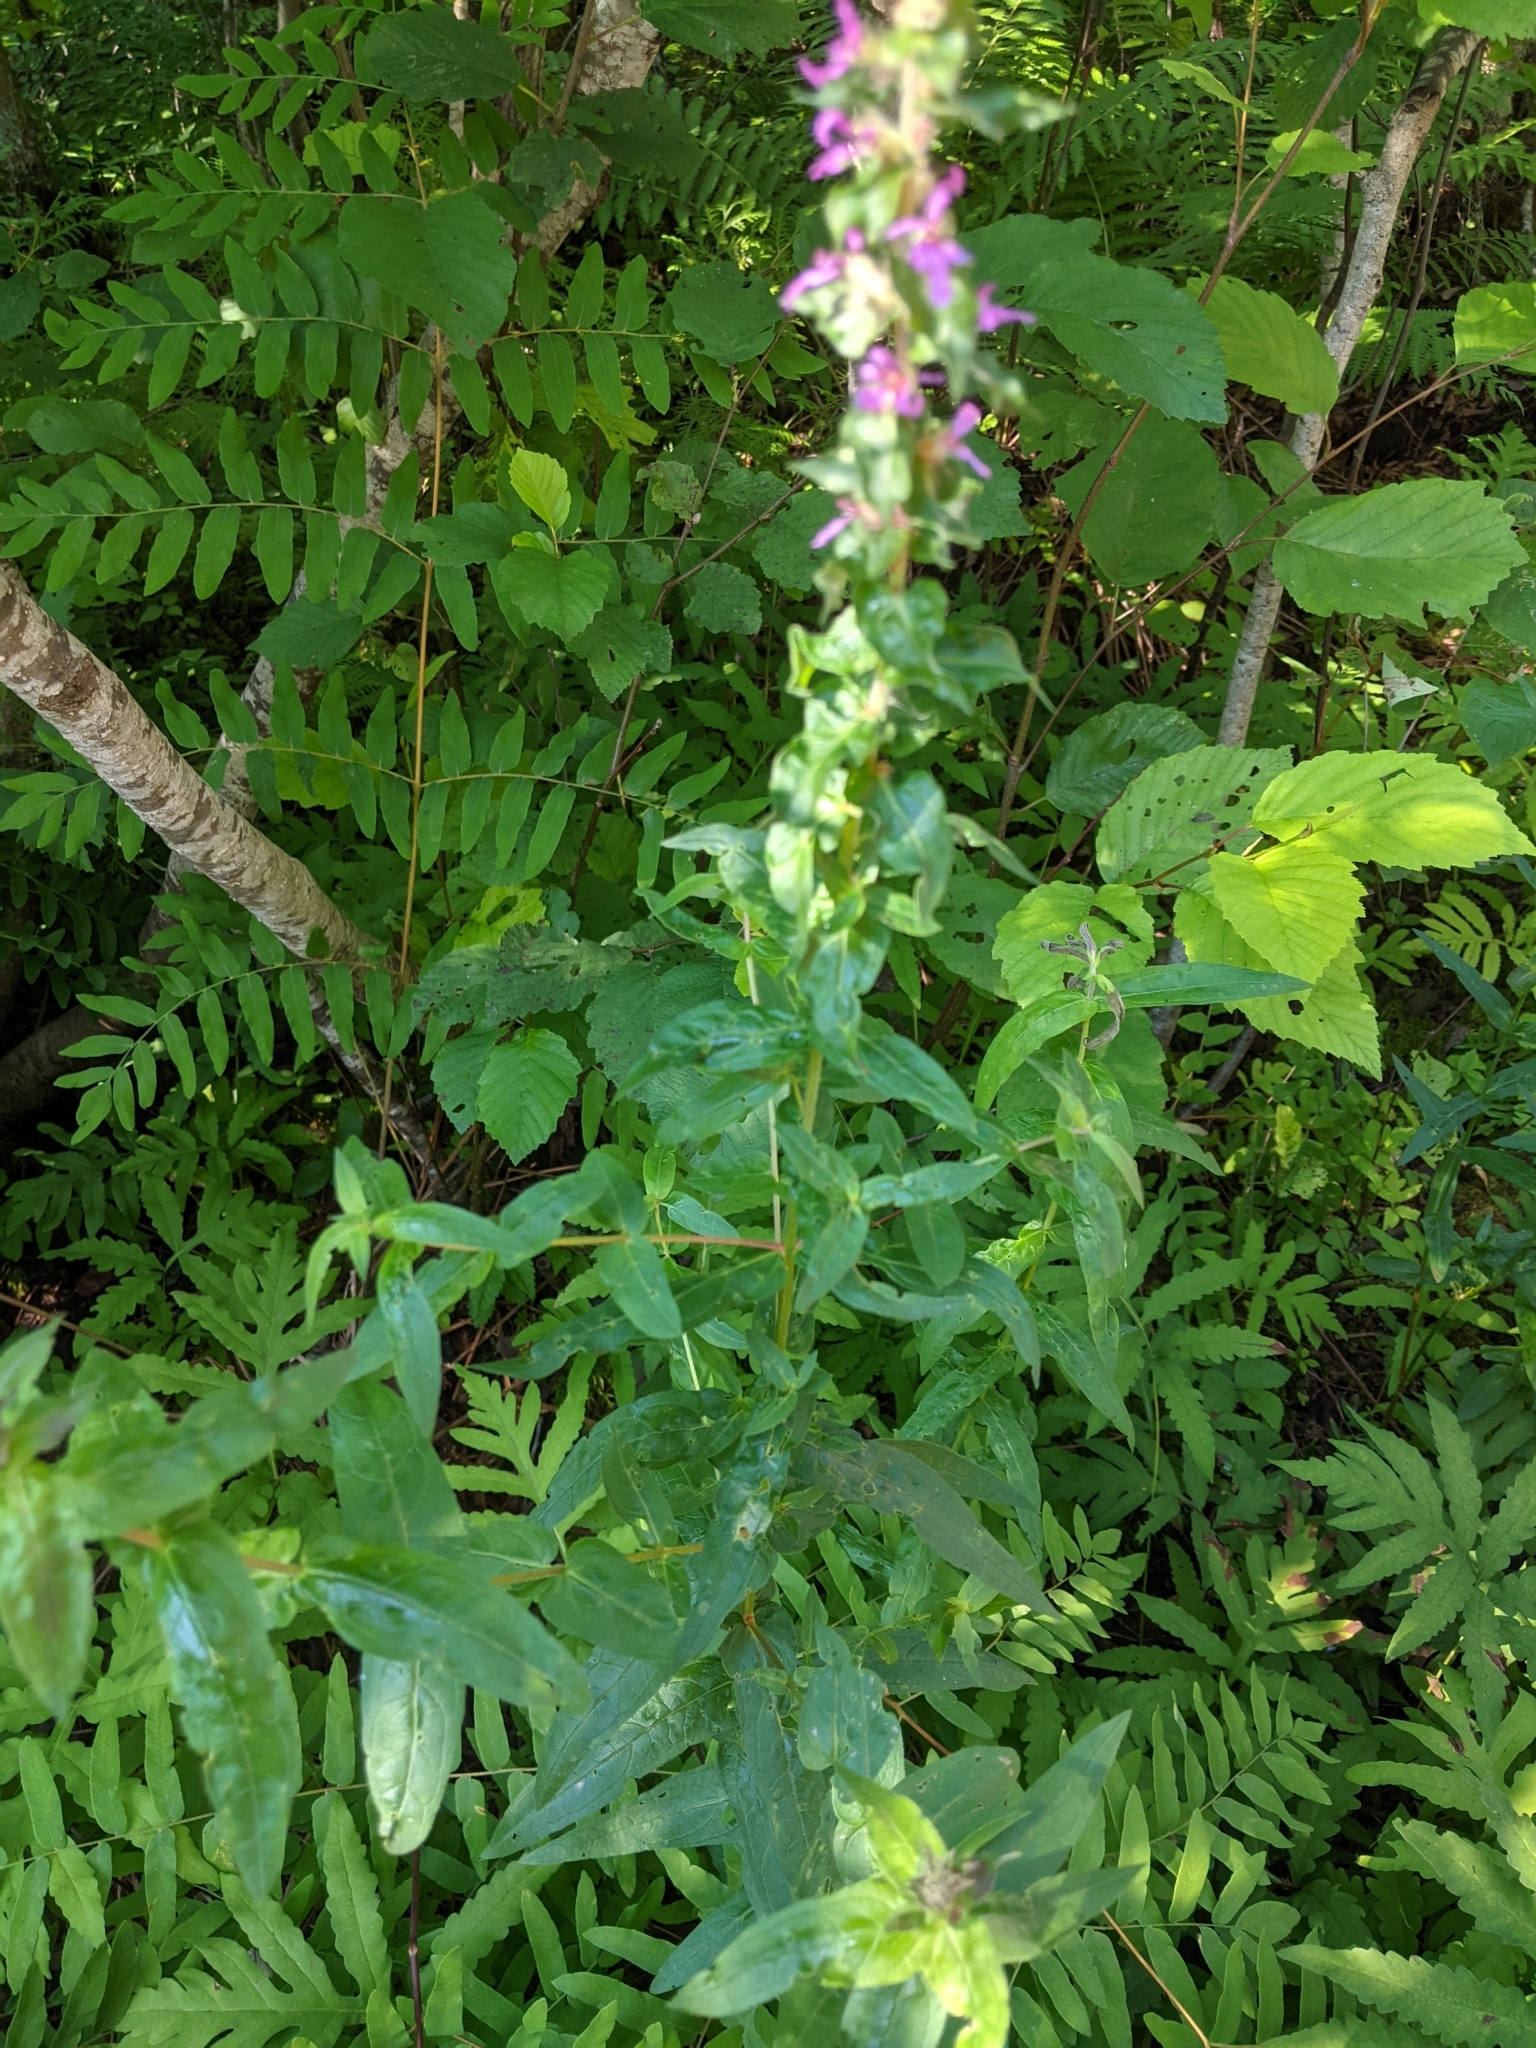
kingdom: Plantae
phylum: Tracheophyta
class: Magnoliopsida
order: Myrtales
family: Lythraceae
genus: Lythrum
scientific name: Lythrum salicaria
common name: Purple loosestrife
